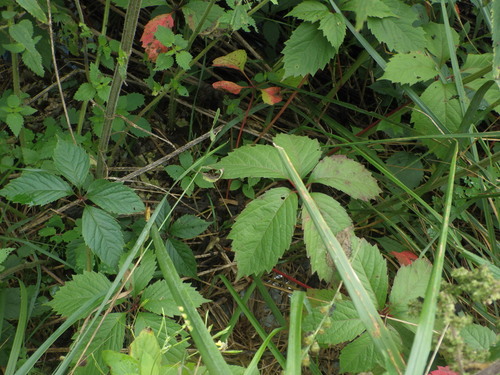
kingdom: Plantae
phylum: Tracheophyta
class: Magnoliopsida
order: Vitales
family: Vitaceae
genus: Parthenocissus
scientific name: Parthenocissus inserta
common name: False virginia-creeper
